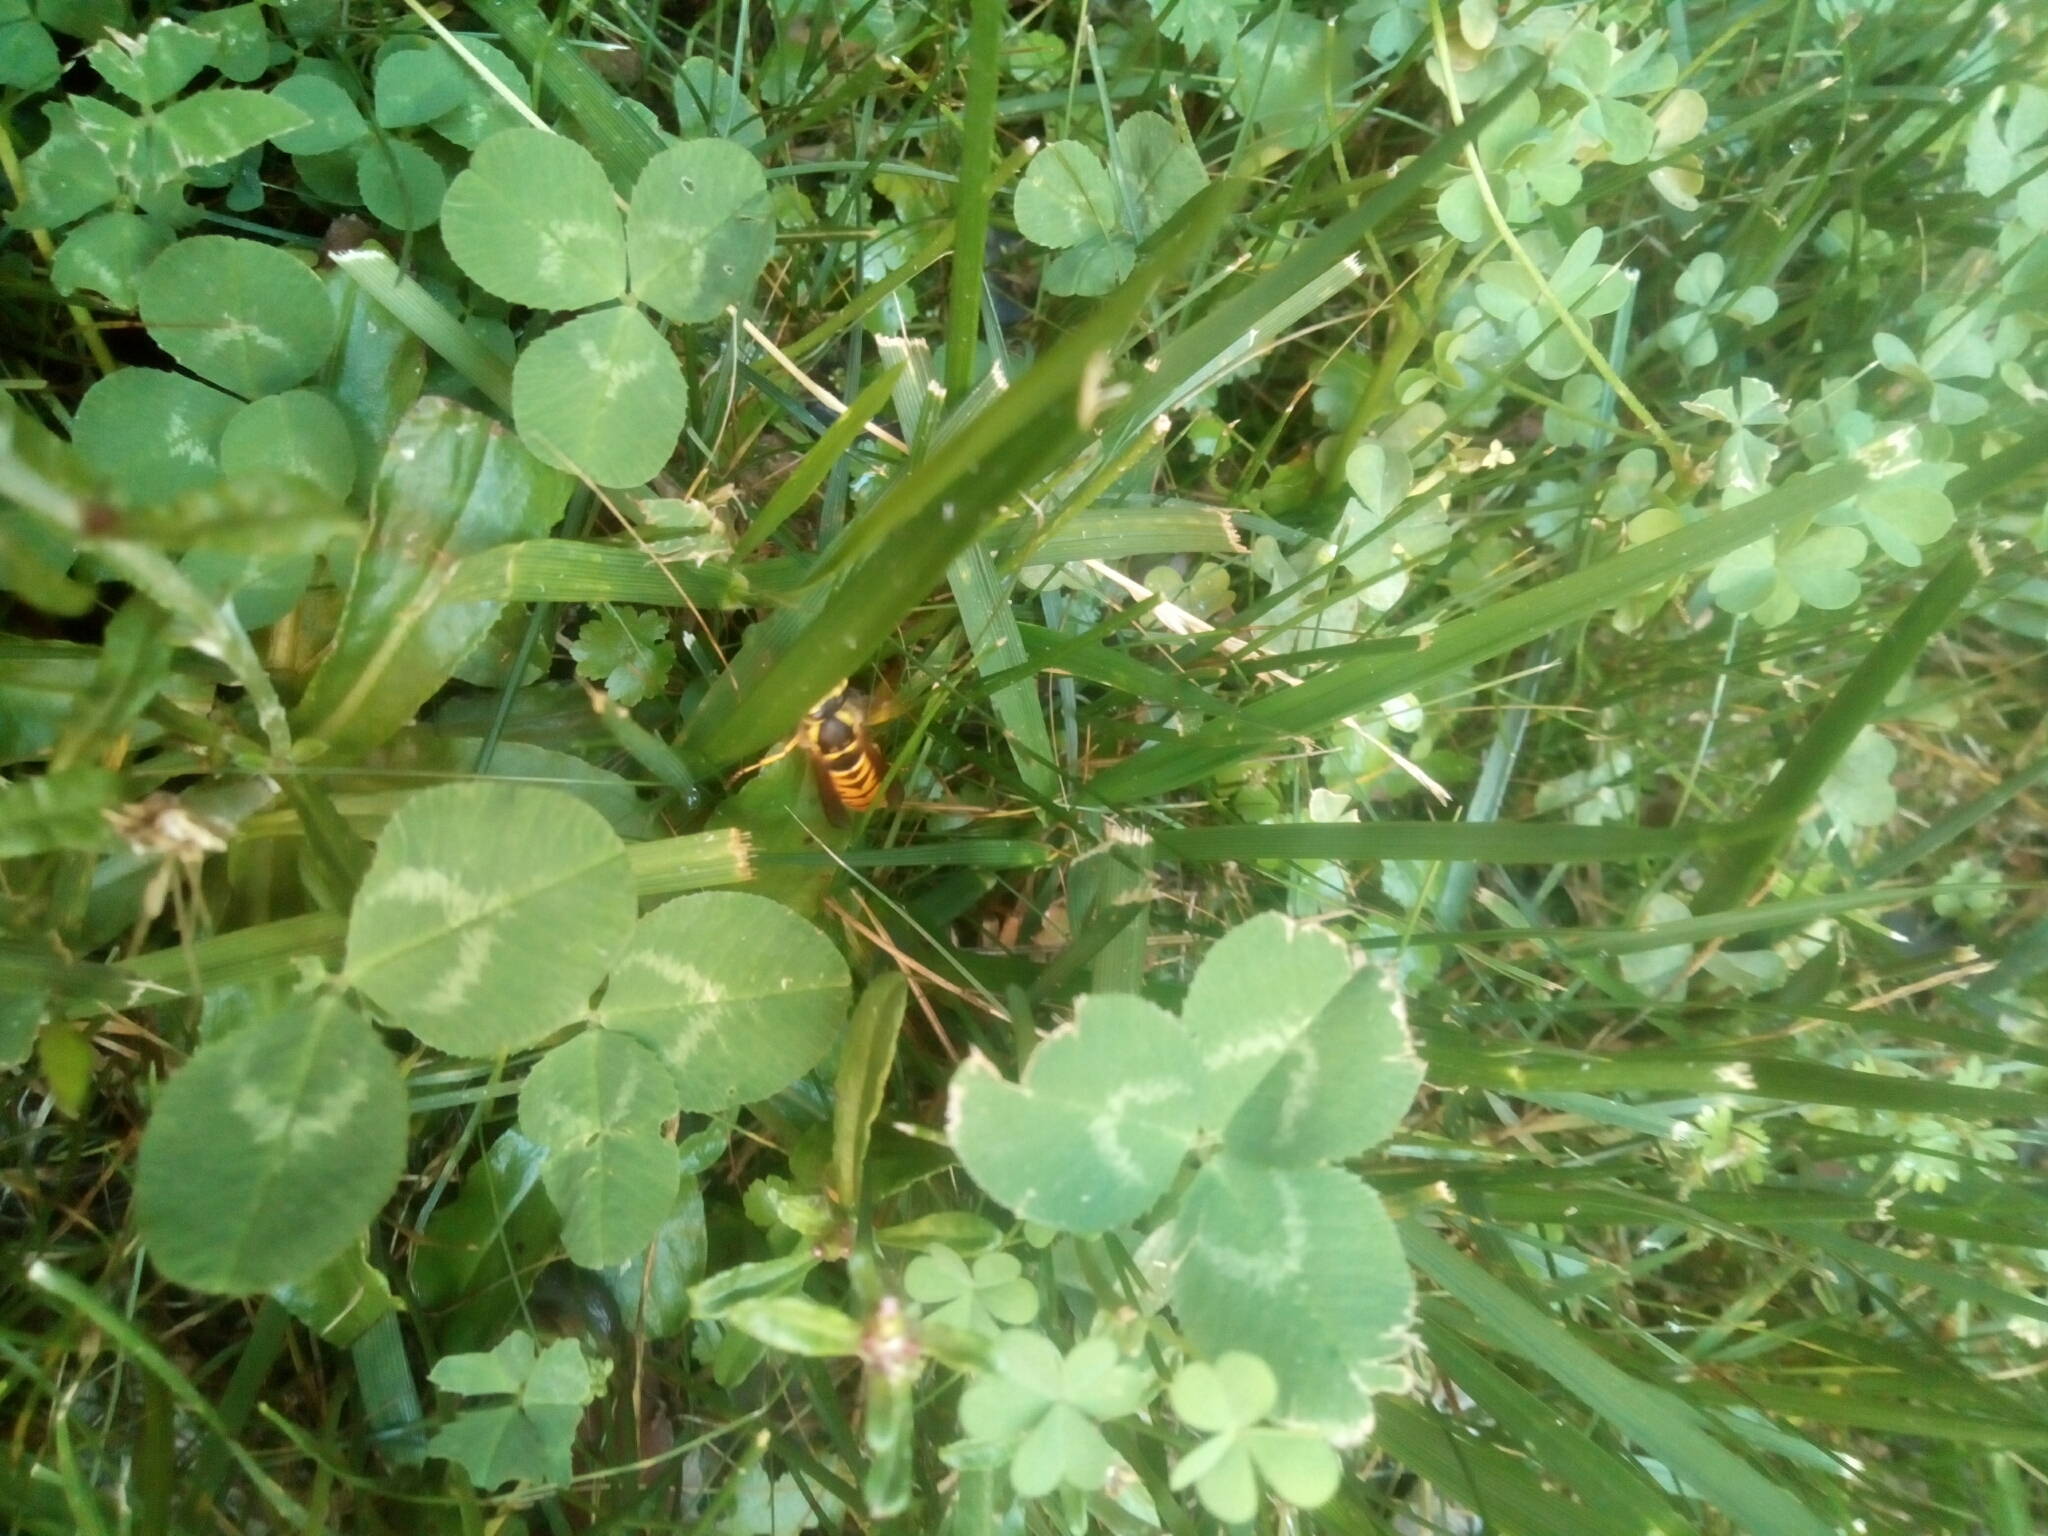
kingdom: Animalia
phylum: Arthropoda
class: Insecta
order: Hymenoptera
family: Vespidae
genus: Vespula
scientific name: Vespula maculifrons
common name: Eastern yellowjacket
